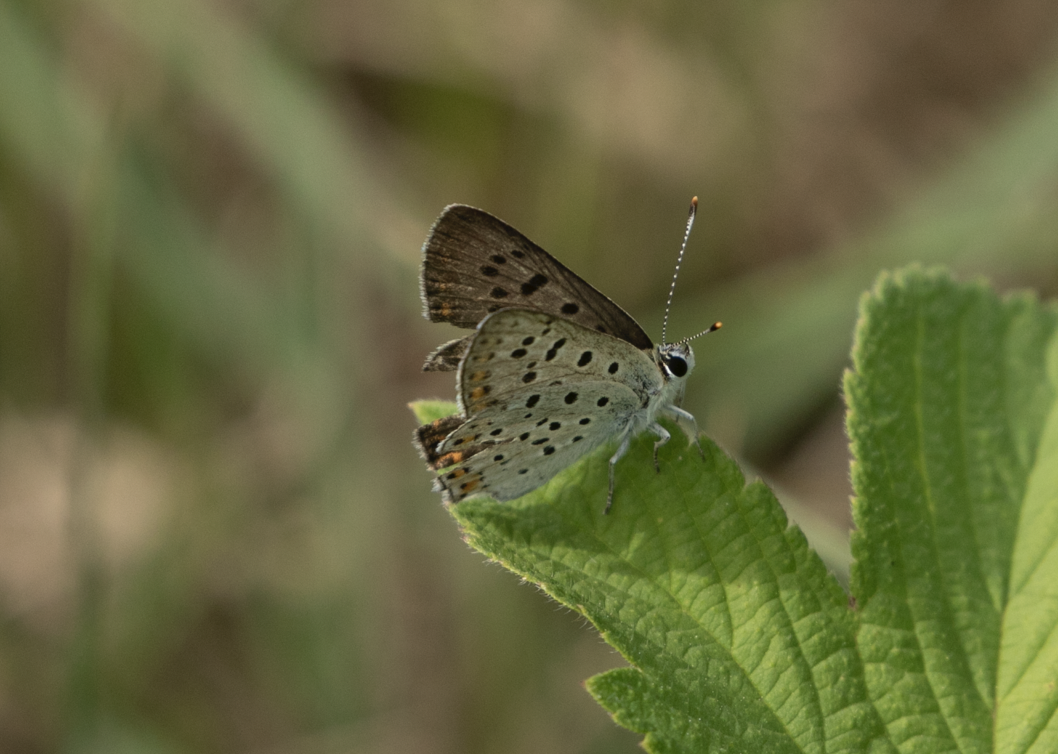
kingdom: Animalia
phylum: Arthropoda
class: Insecta
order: Lepidoptera
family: Lycaenidae
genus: Loweia
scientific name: Loweia tityrus
